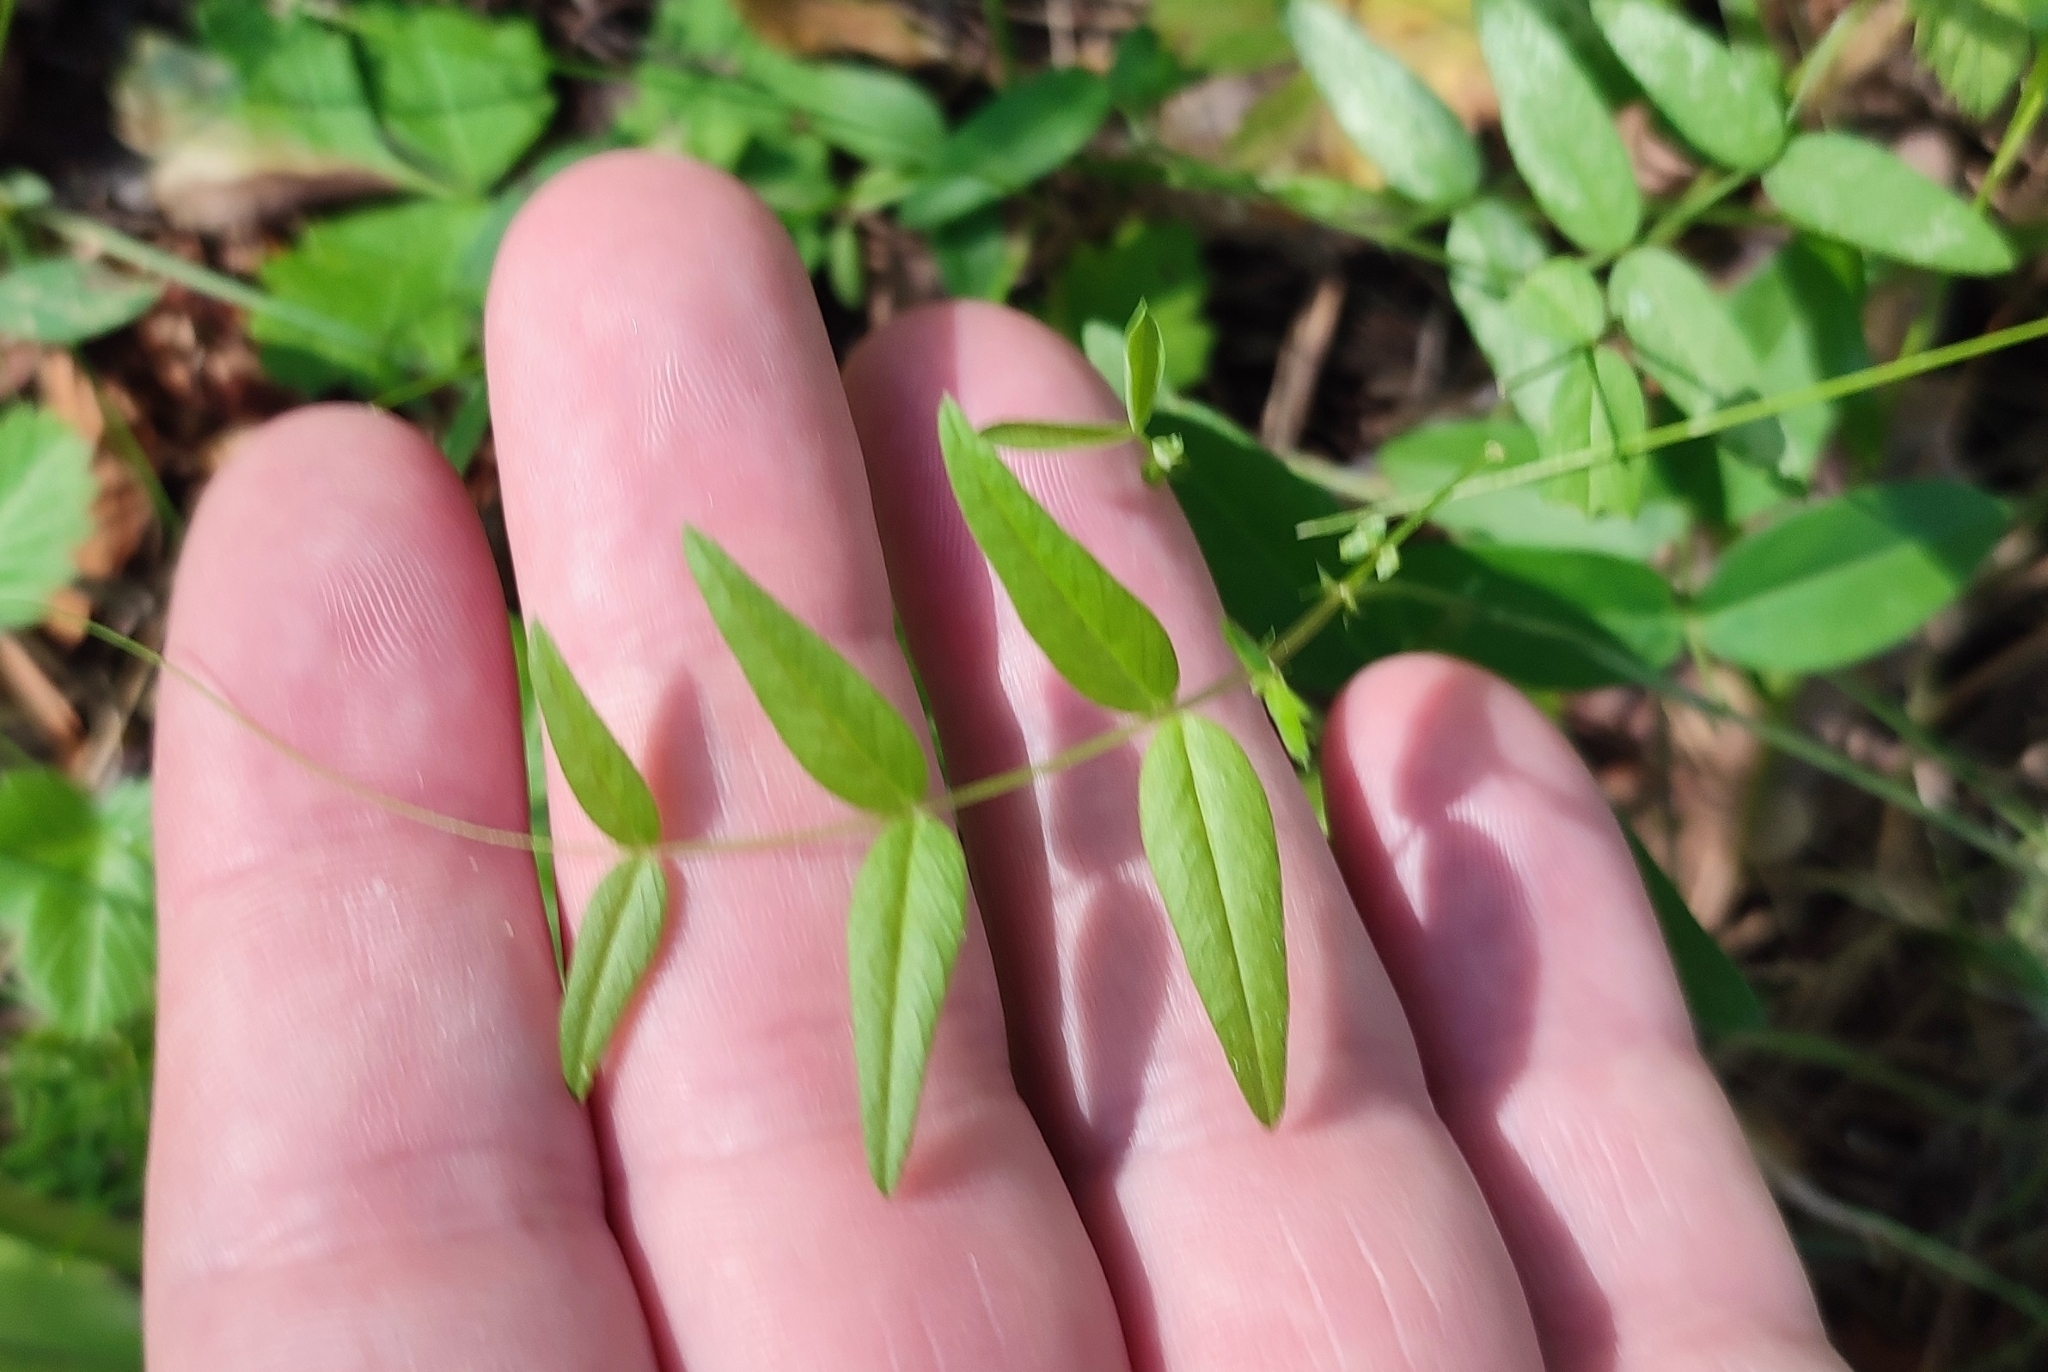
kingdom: Plantae
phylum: Tracheophyta
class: Magnoliopsida
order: Fabales
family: Fabaceae
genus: Vicia
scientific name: Vicia sepium
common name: Bush vetch
